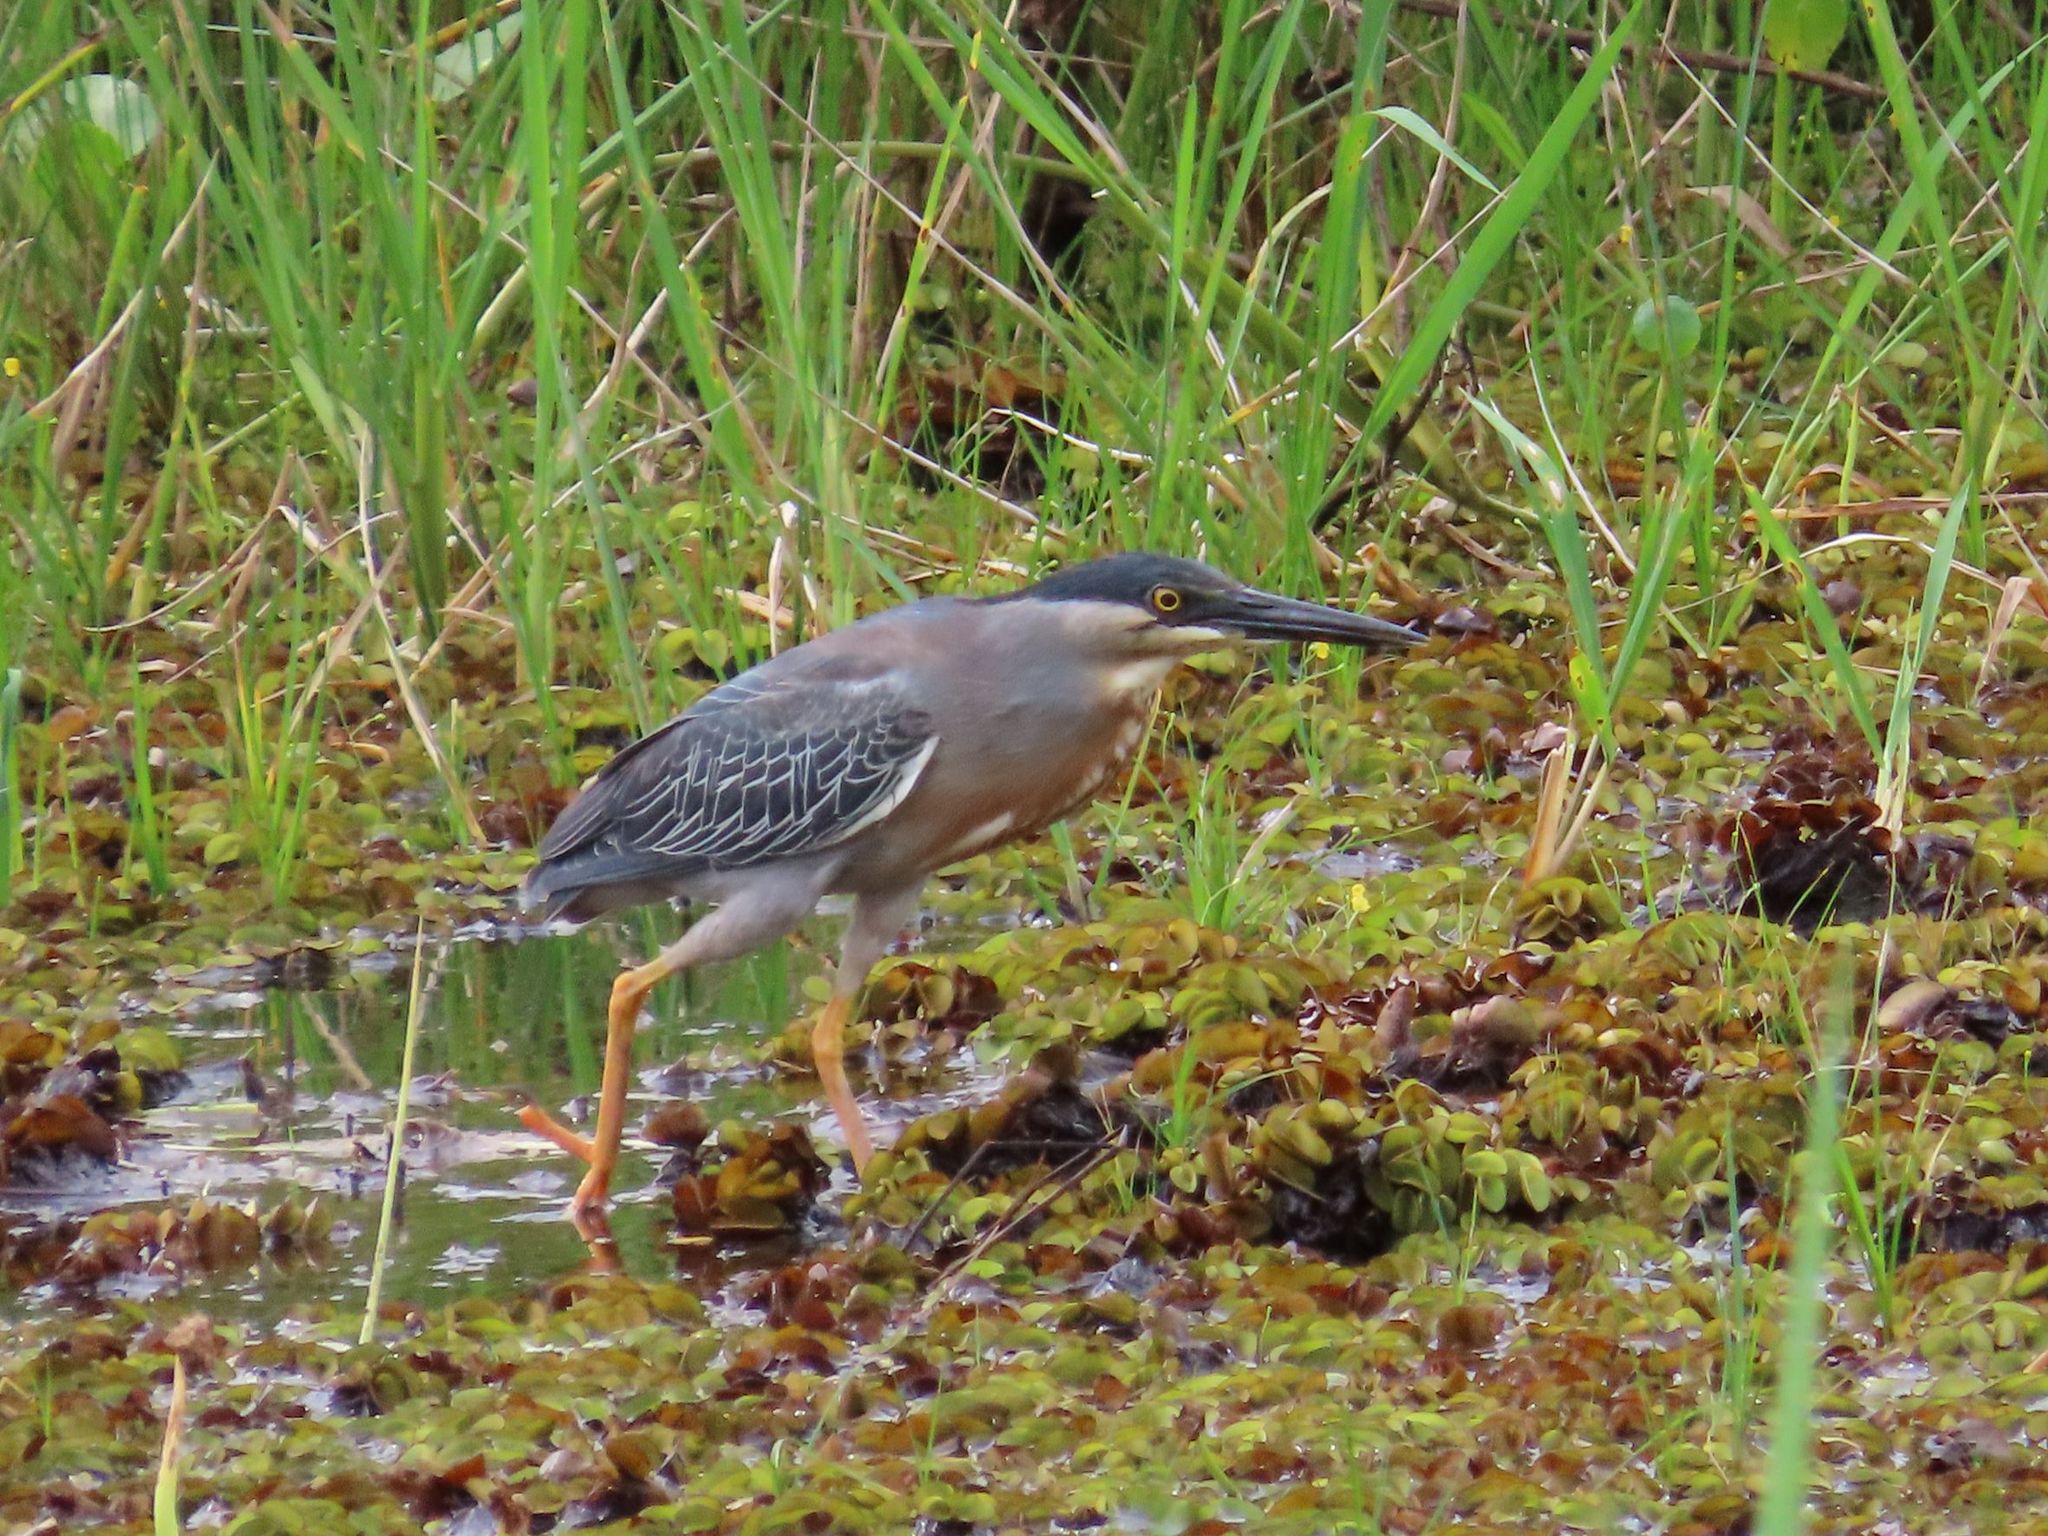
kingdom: Animalia
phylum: Chordata
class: Aves
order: Pelecaniformes
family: Ardeidae
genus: Butorides
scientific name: Butorides striata
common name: Striated heron
